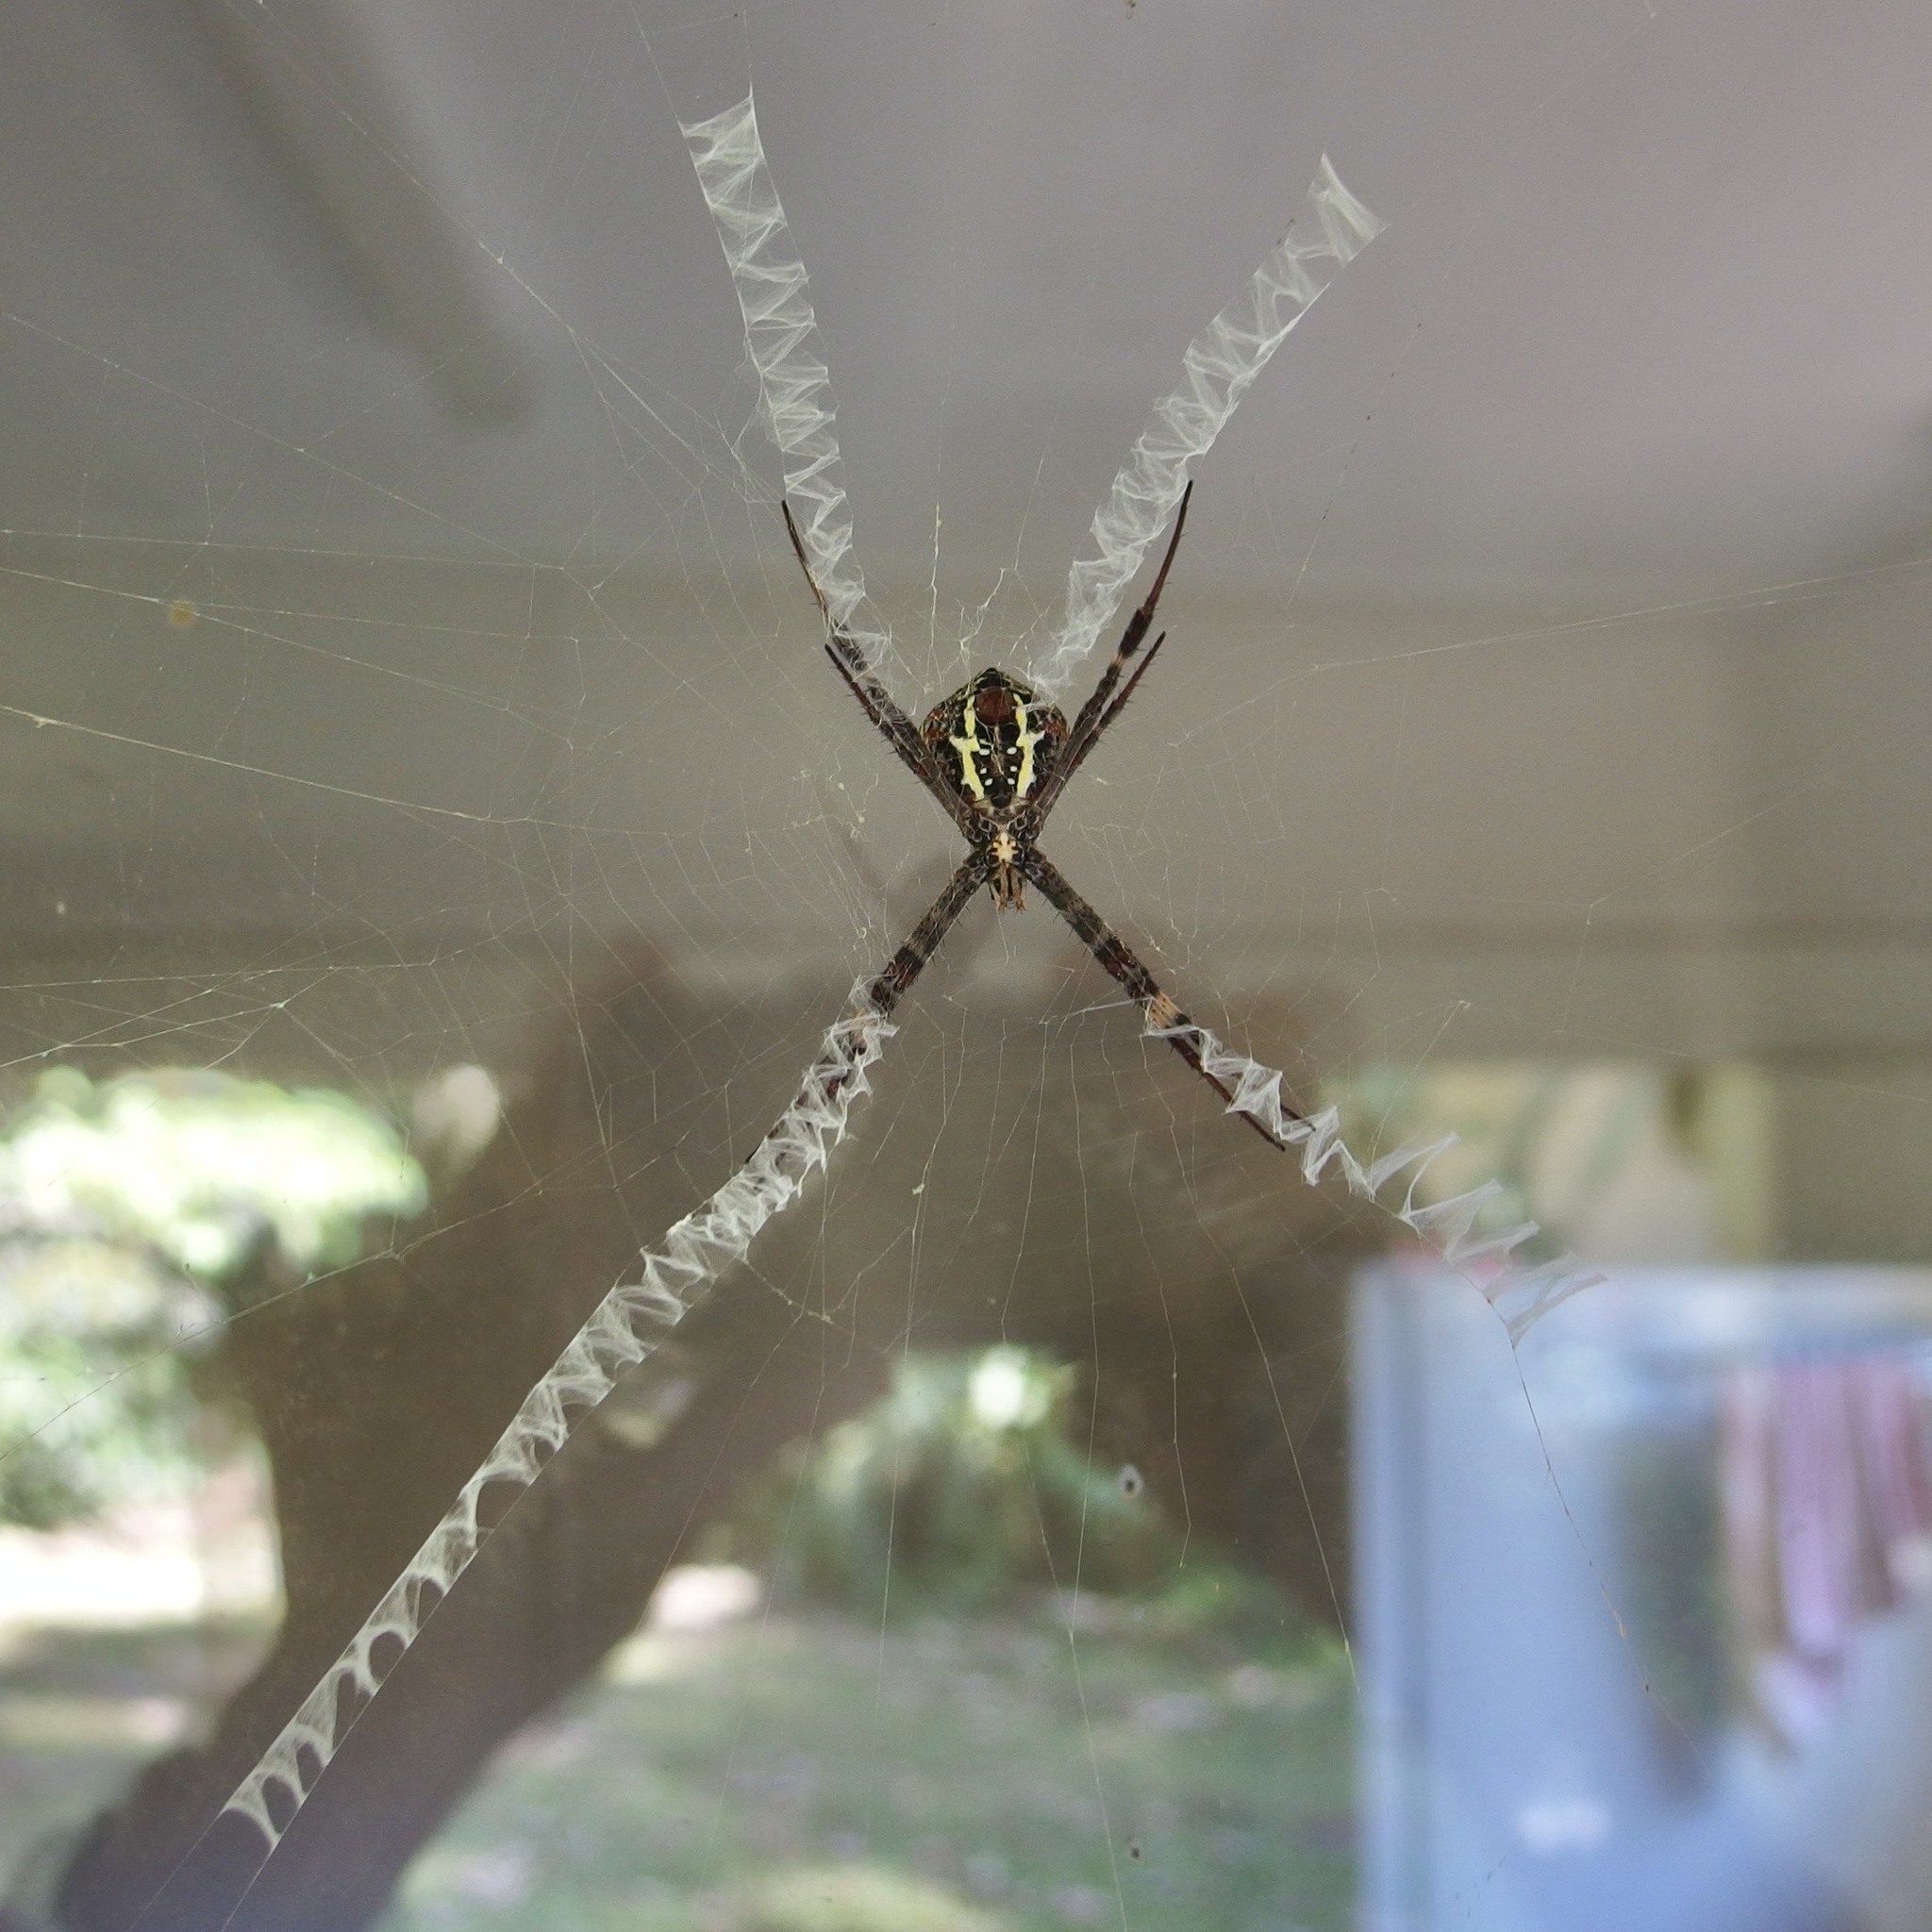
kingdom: Animalia
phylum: Arthropoda
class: Arachnida
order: Araneae
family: Araneidae
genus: Argiope
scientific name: Argiope aetherea
